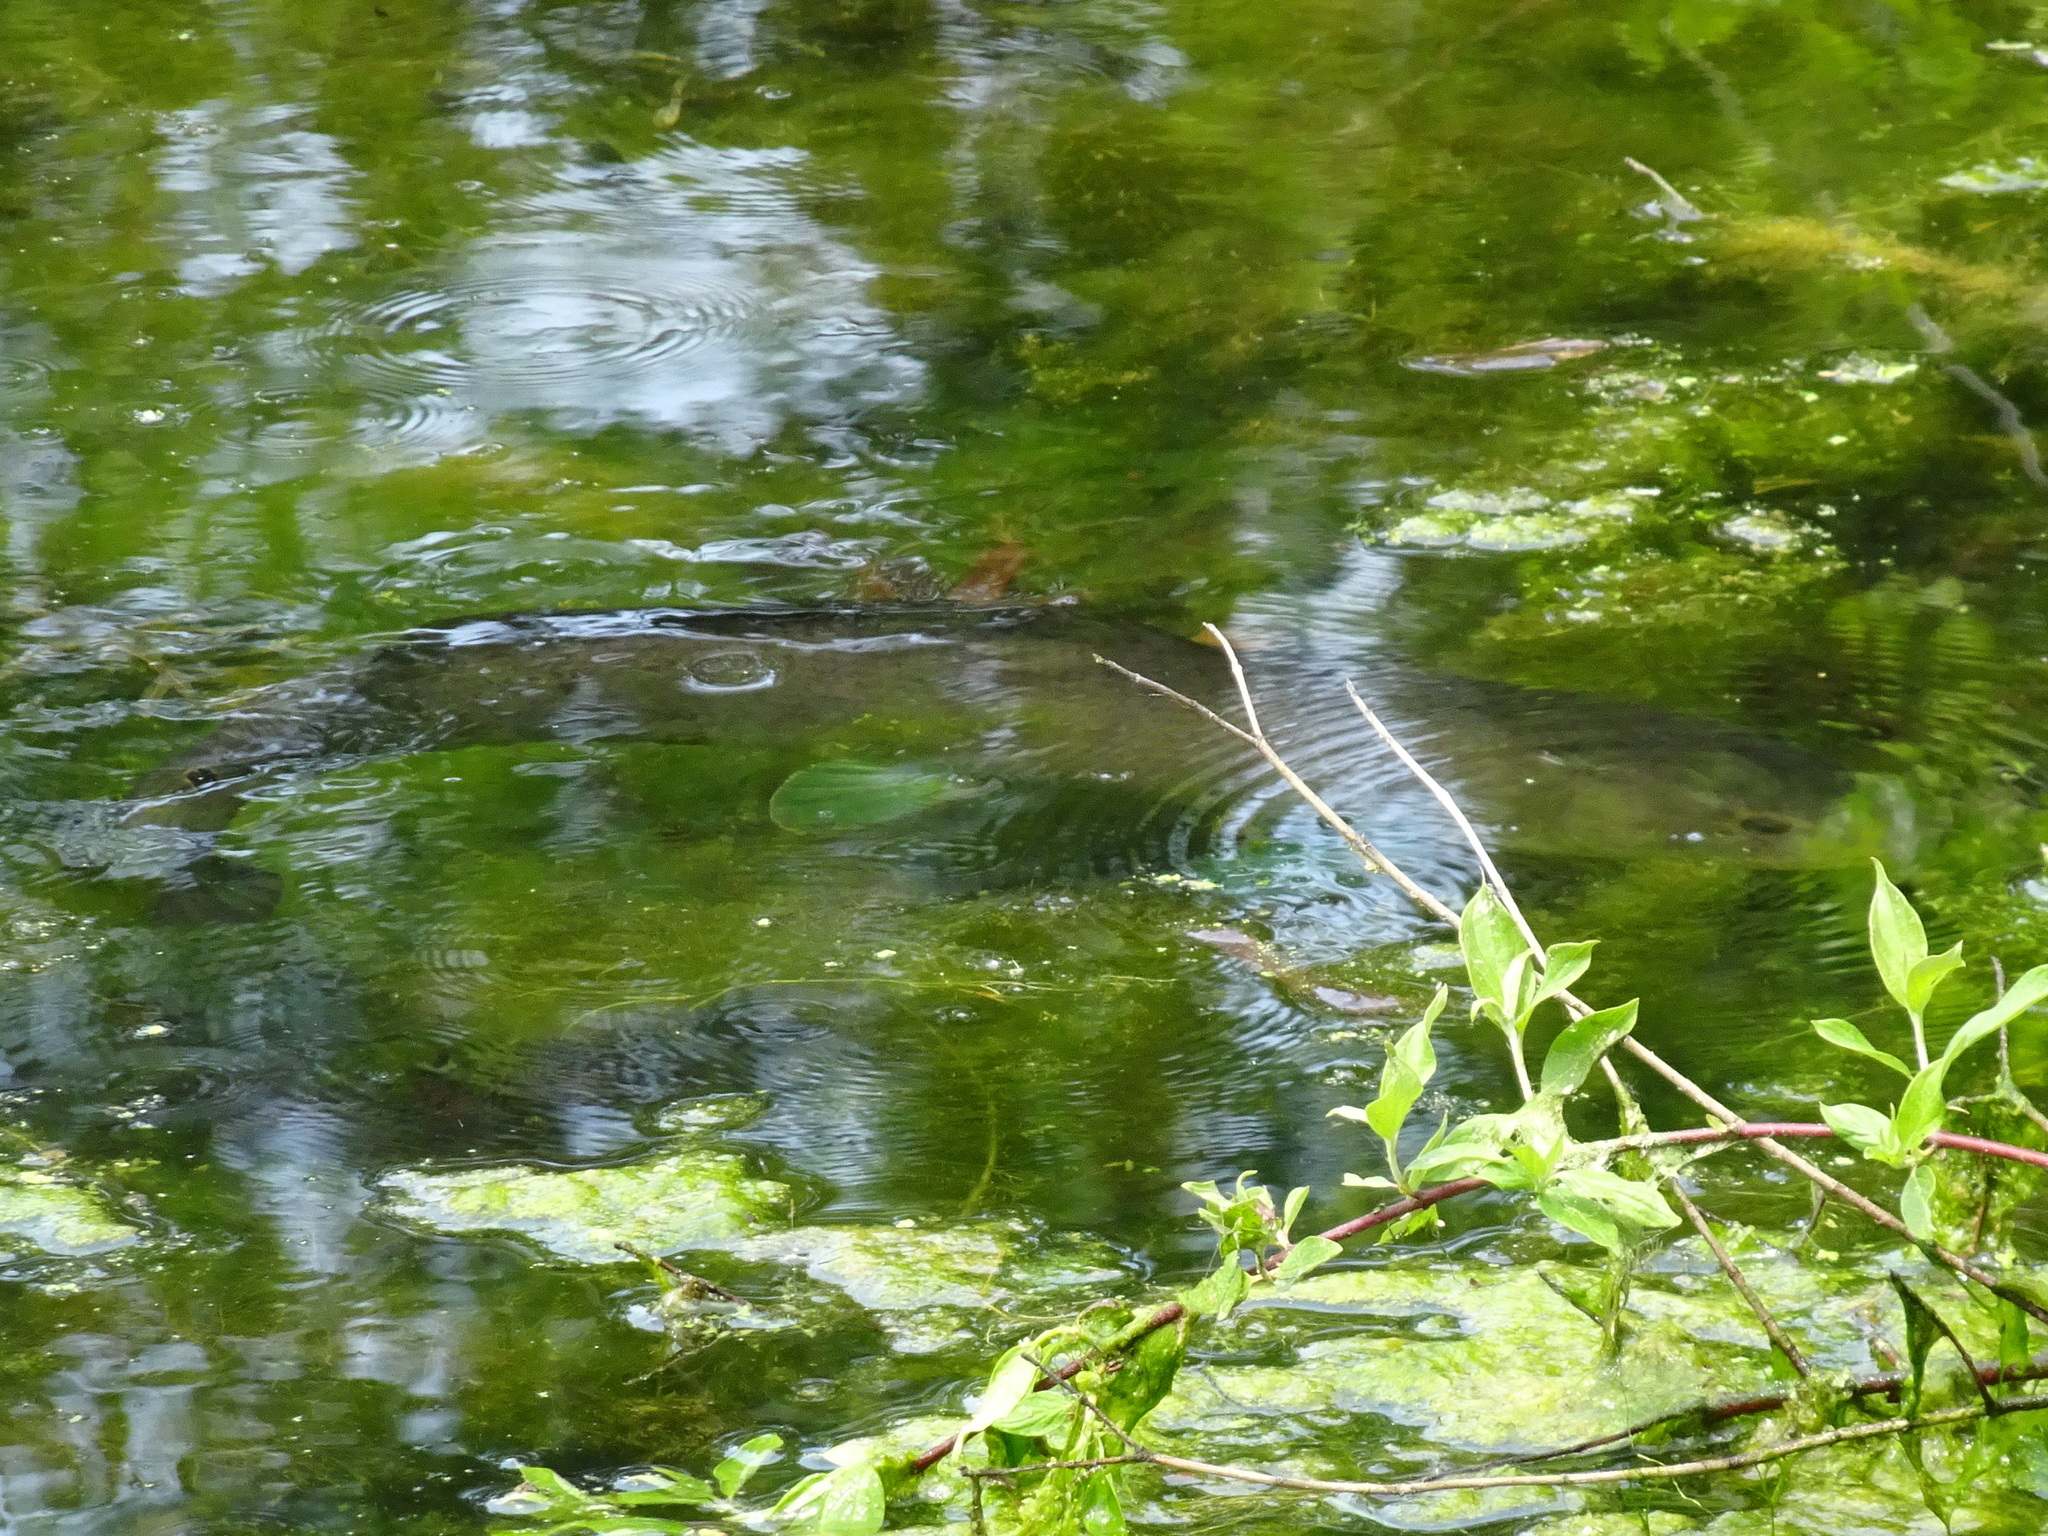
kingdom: Animalia
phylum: Chordata
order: Amiiformes
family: Amiidae
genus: Amia
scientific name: Amia calva
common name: Bowfin
